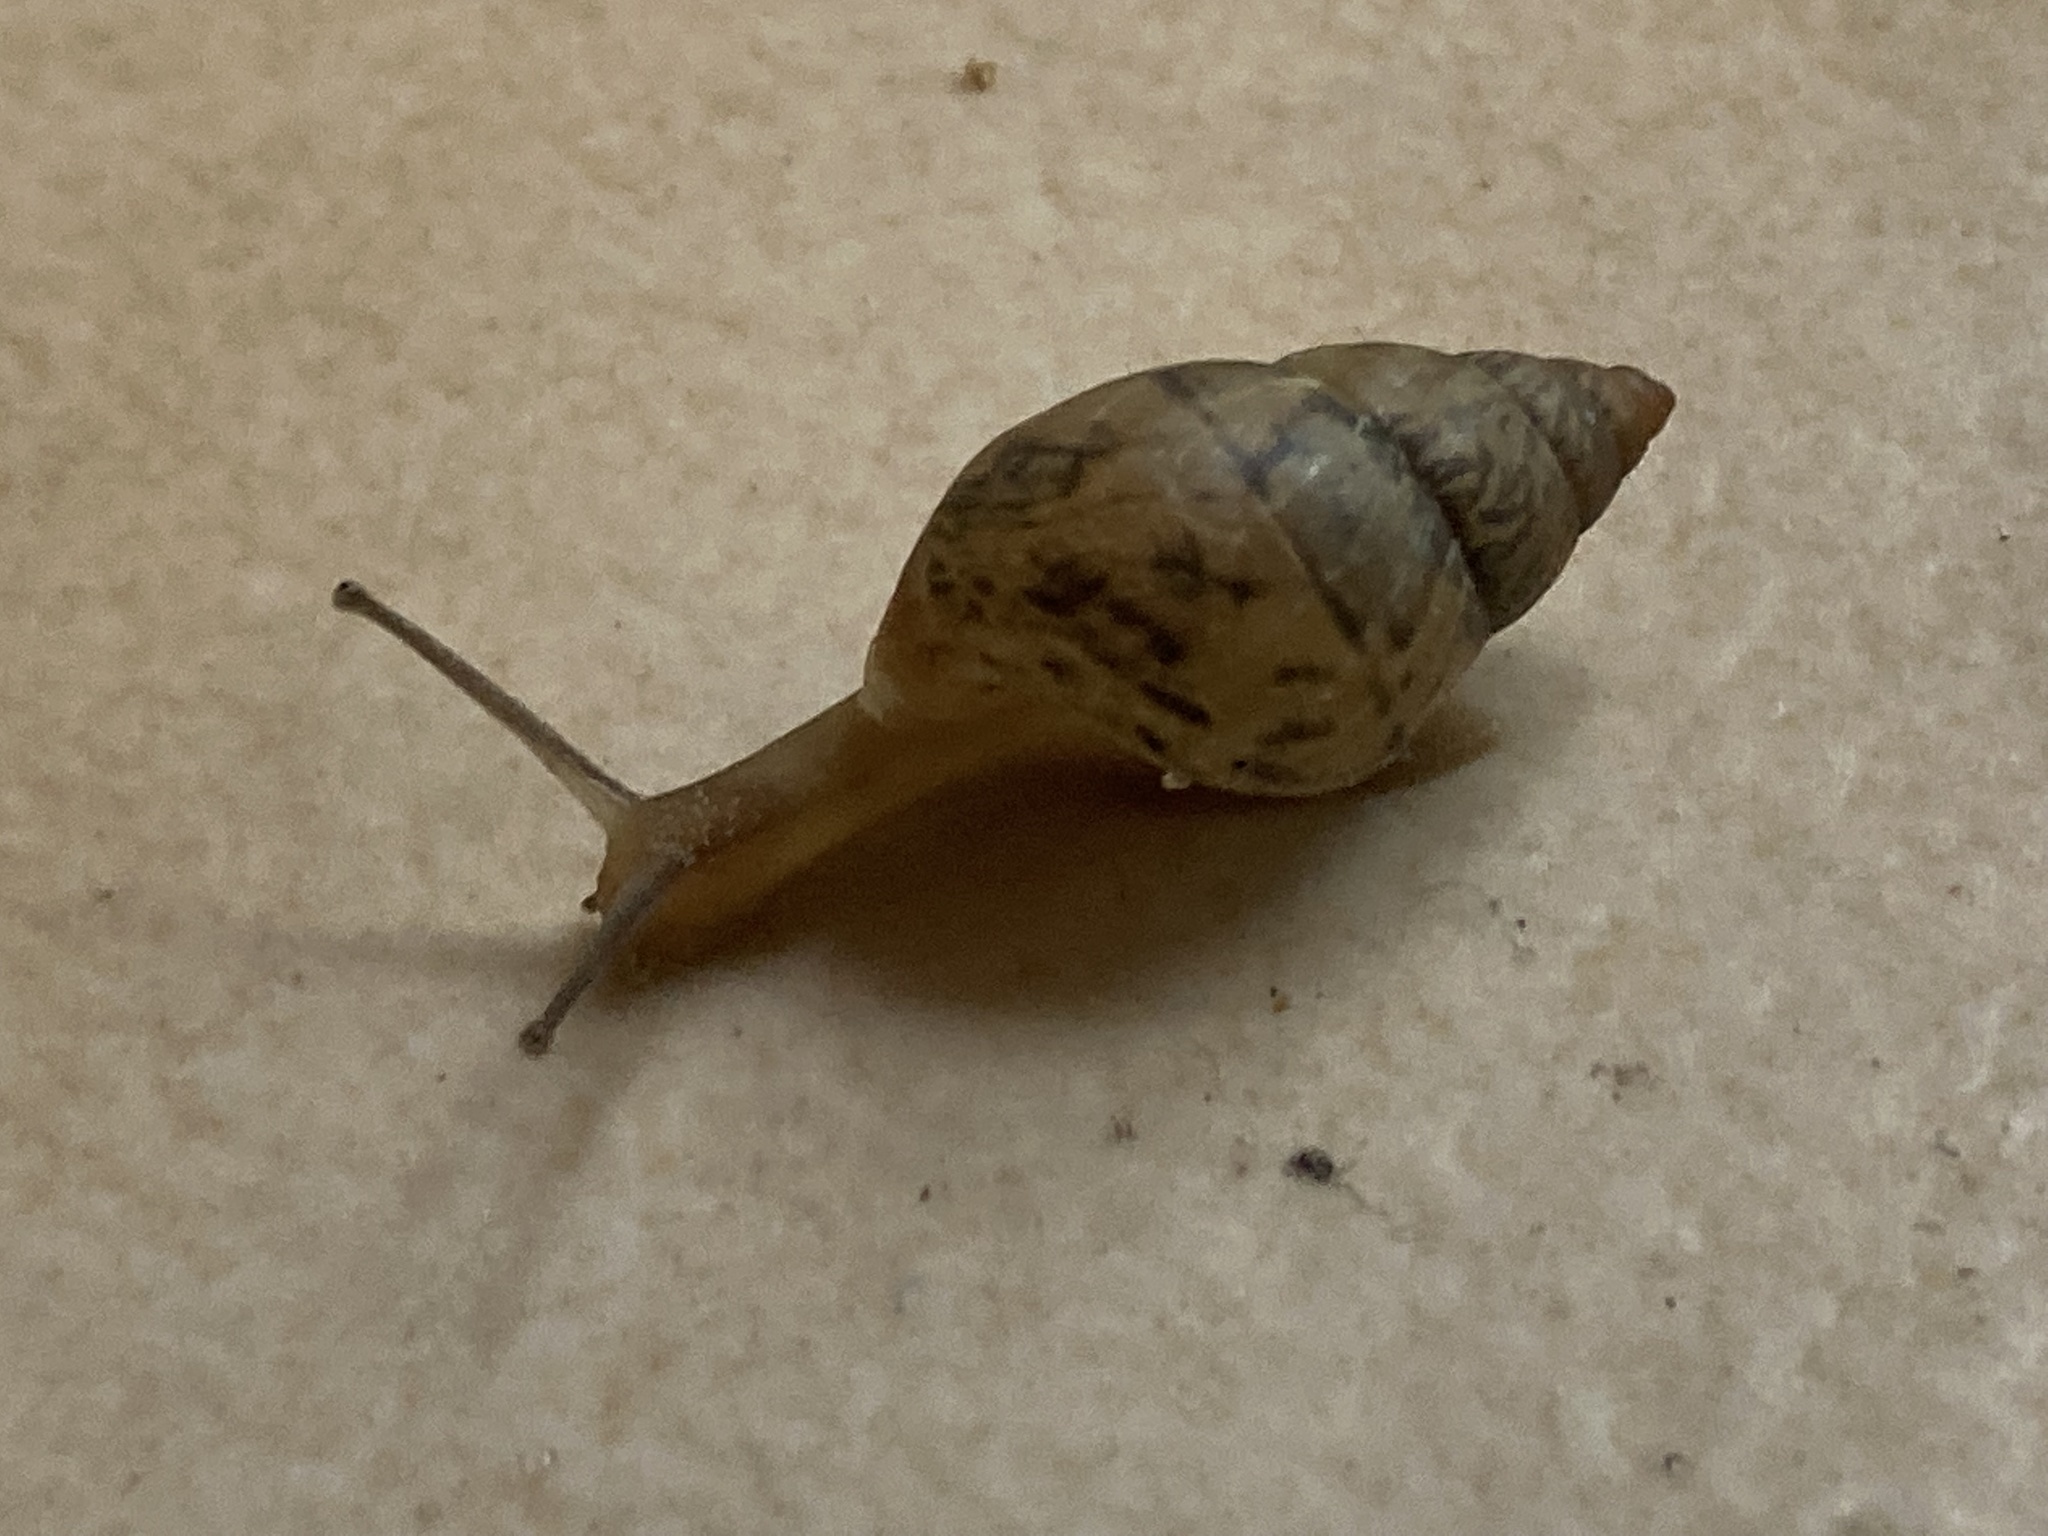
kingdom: Animalia
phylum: Mollusca
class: Gastropoda
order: Stylommatophora
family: Bulimulidae
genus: Bulimulus
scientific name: Bulimulus bonariensis
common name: Snail
